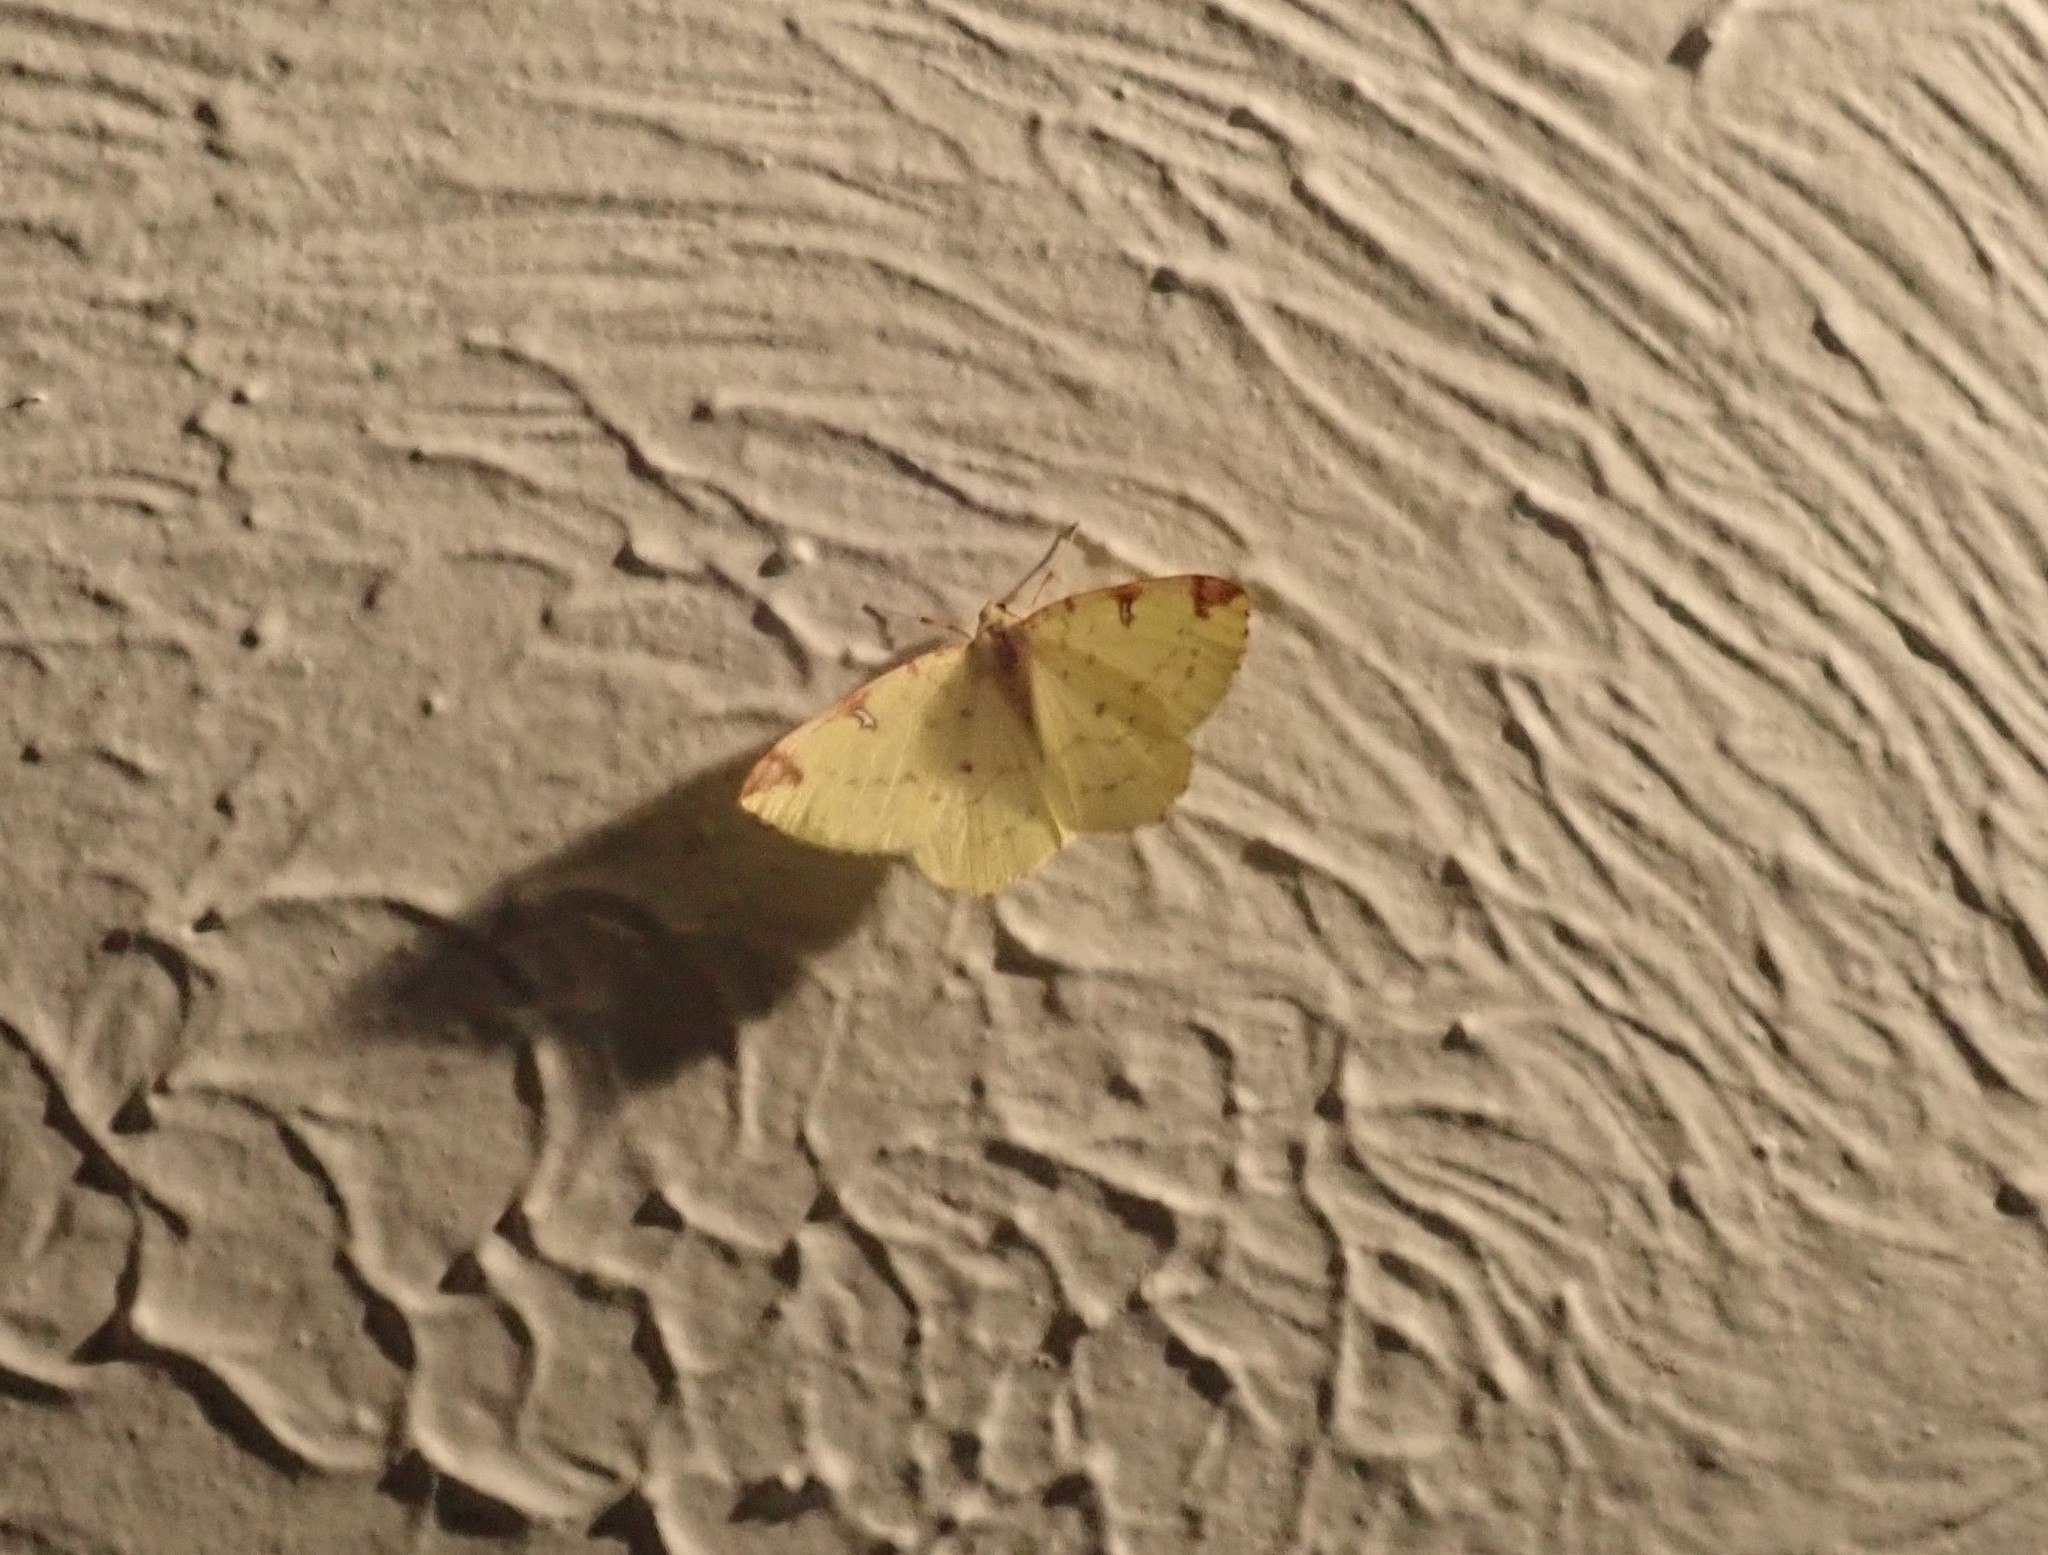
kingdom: Animalia
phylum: Arthropoda
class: Insecta
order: Lepidoptera
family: Geometridae
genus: Opisthograptis
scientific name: Opisthograptis luteolata
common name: Brimstone moth
